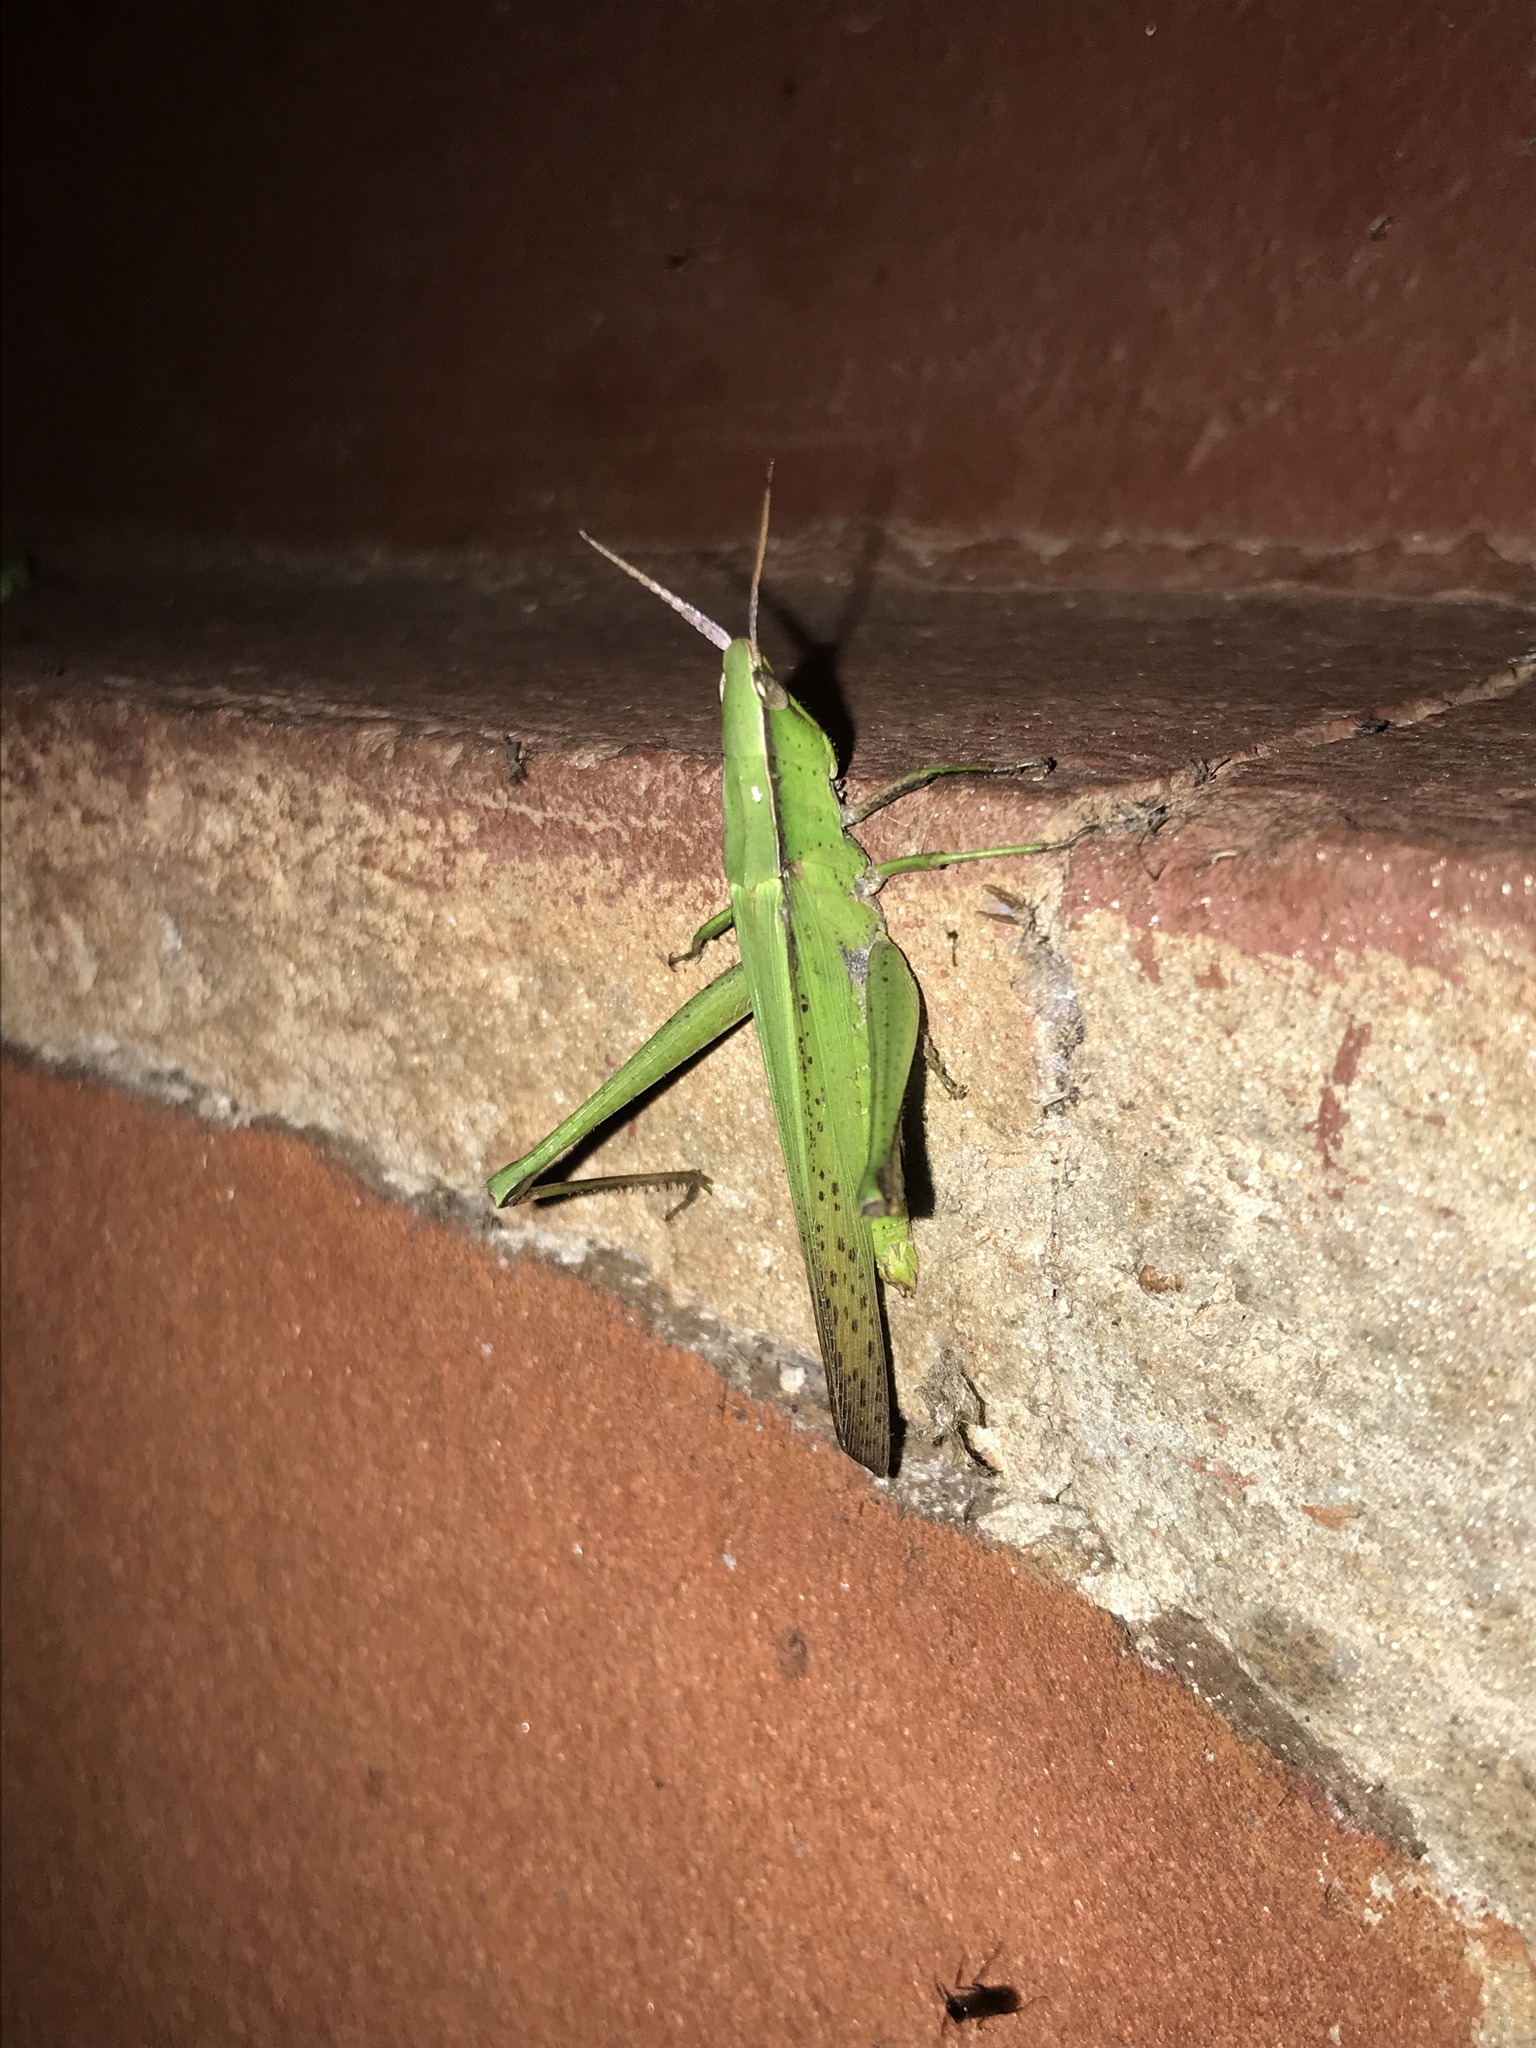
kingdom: Animalia
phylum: Arthropoda
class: Insecta
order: Orthoptera
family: Acrididae
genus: Metaleptea
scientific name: Metaleptea adspersa
